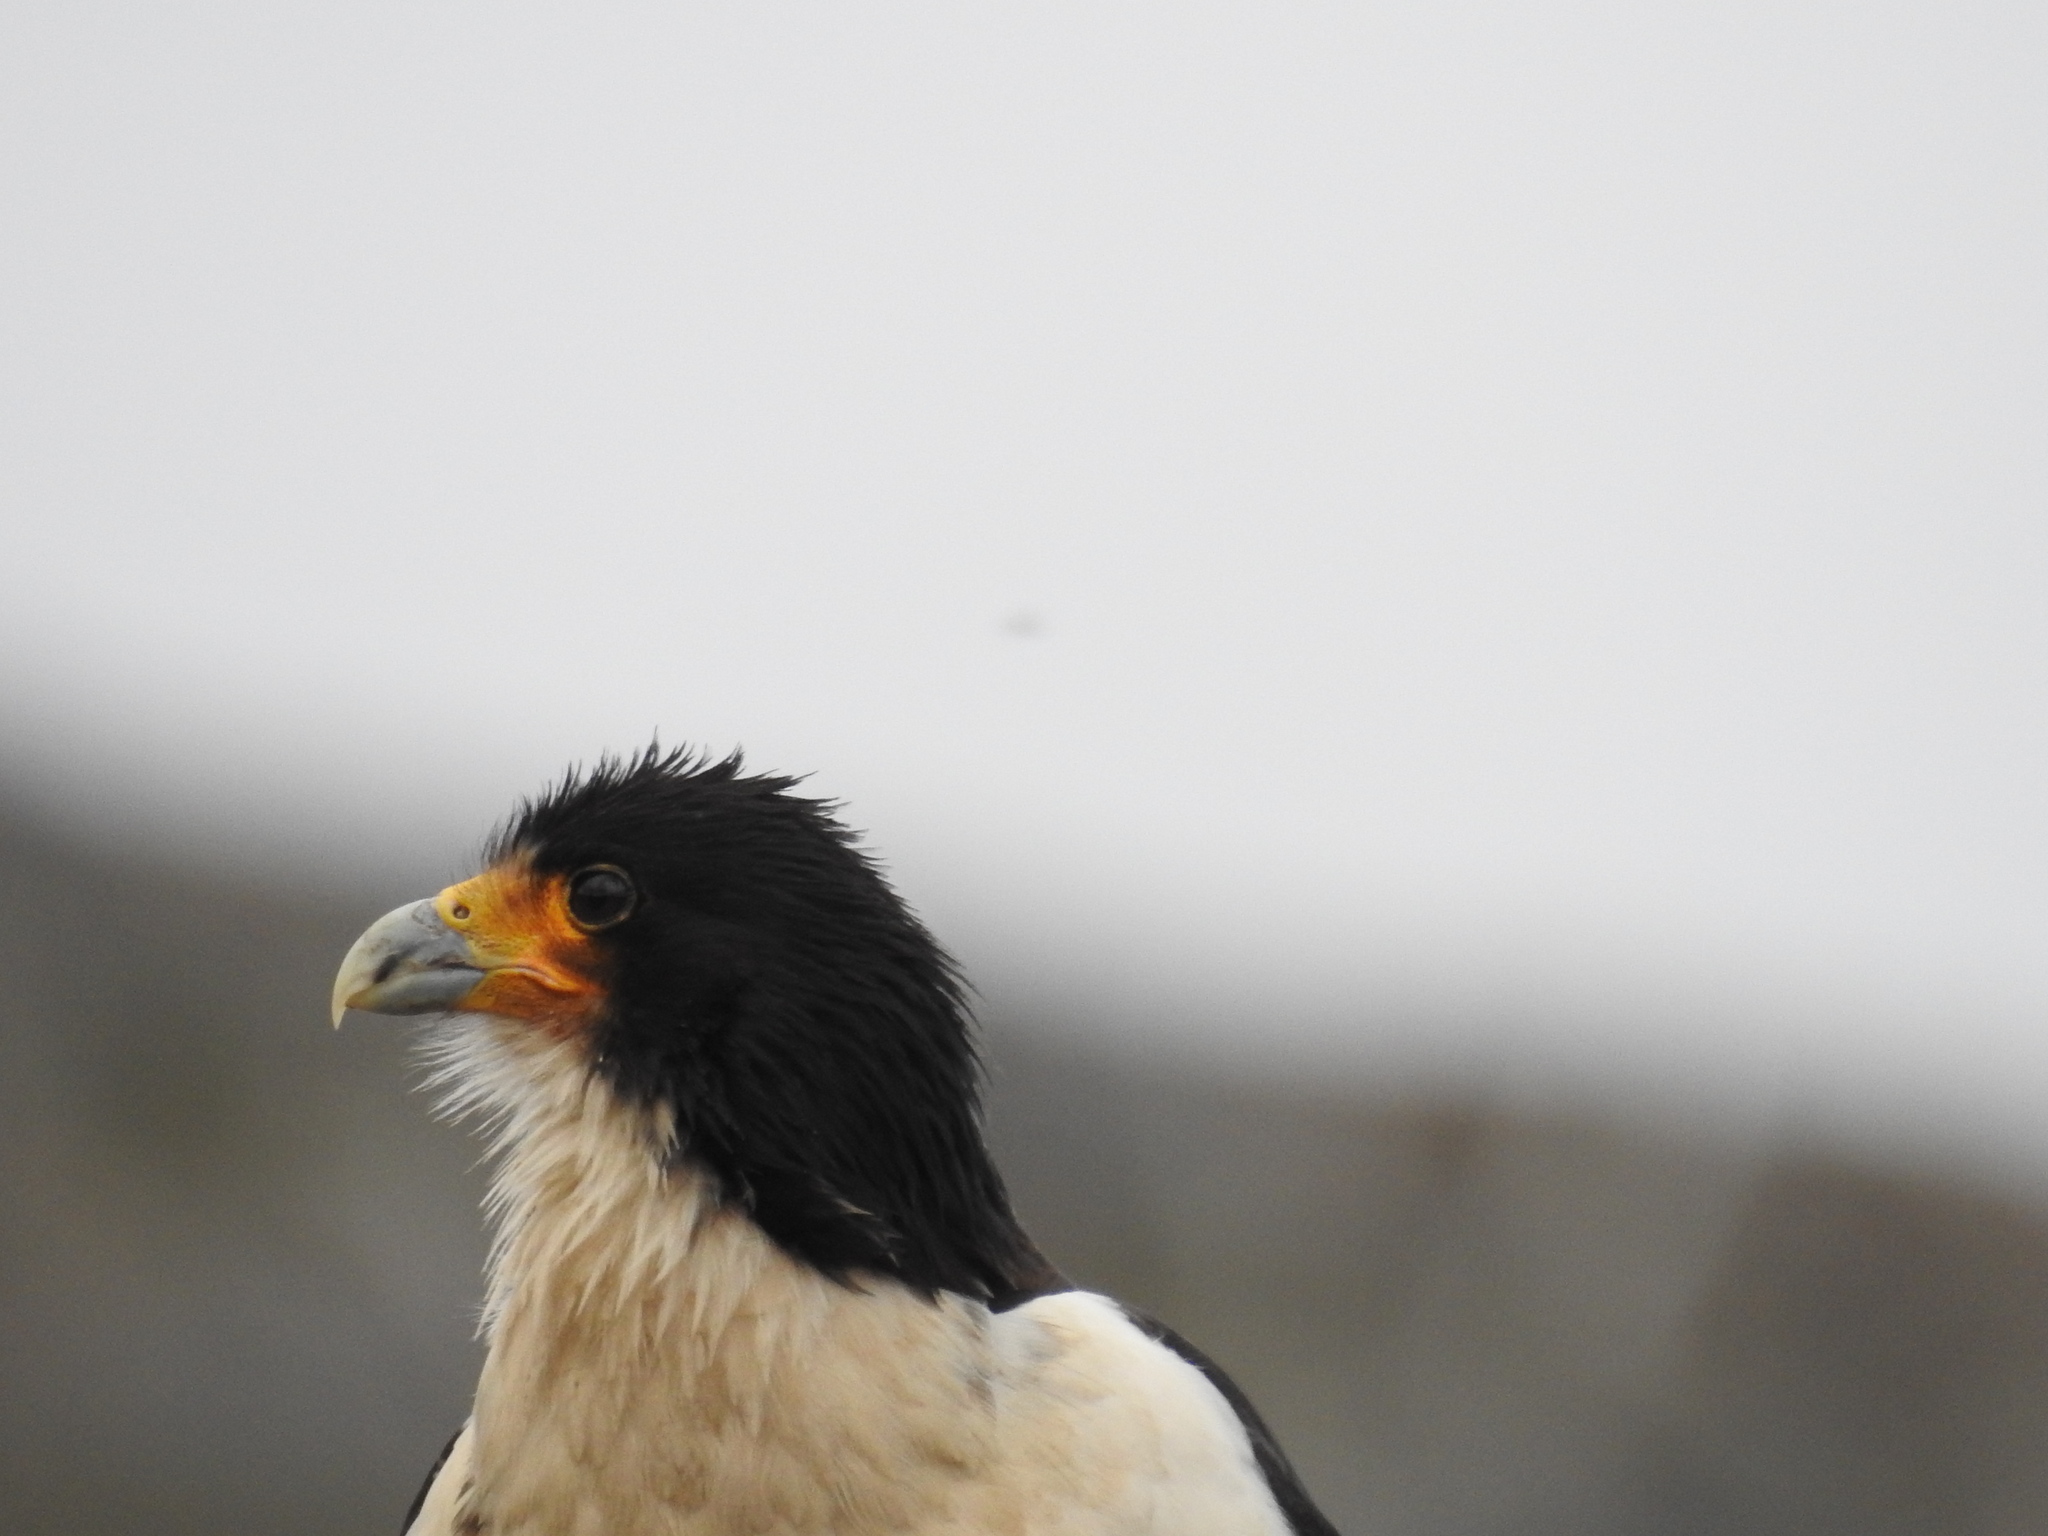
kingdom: Animalia
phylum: Chordata
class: Aves
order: Falconiformes
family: Falconidae
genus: Daptrius
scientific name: Daptrius
